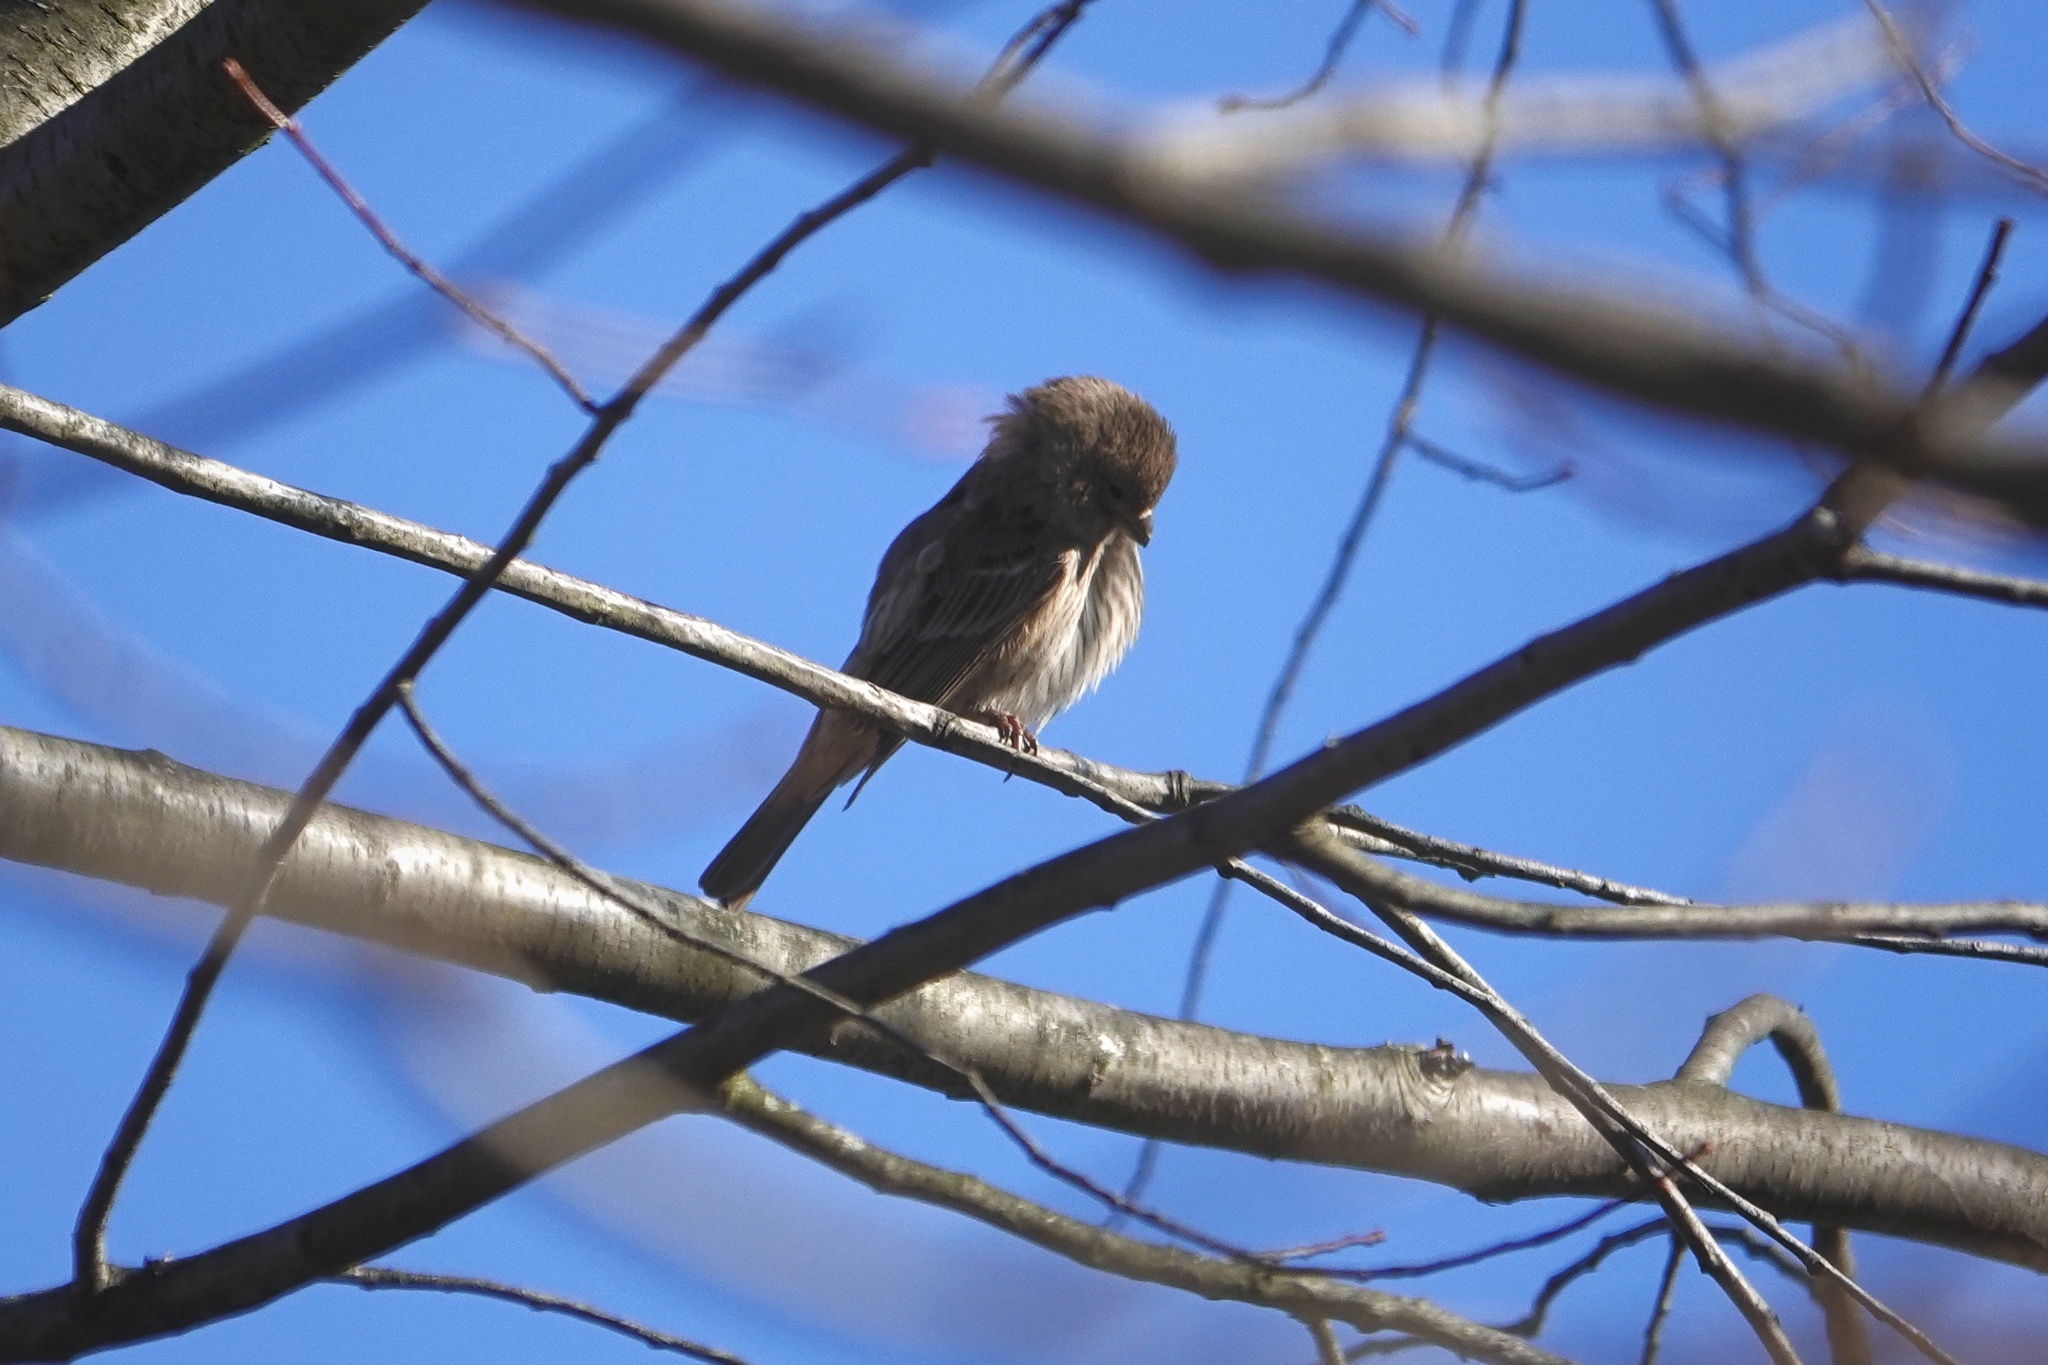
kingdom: Animalia
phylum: Chordata
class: Aves
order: Passeriformes
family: Fringillidae
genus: Haemorhous
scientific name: Haemorhous mexicanus
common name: House finch
